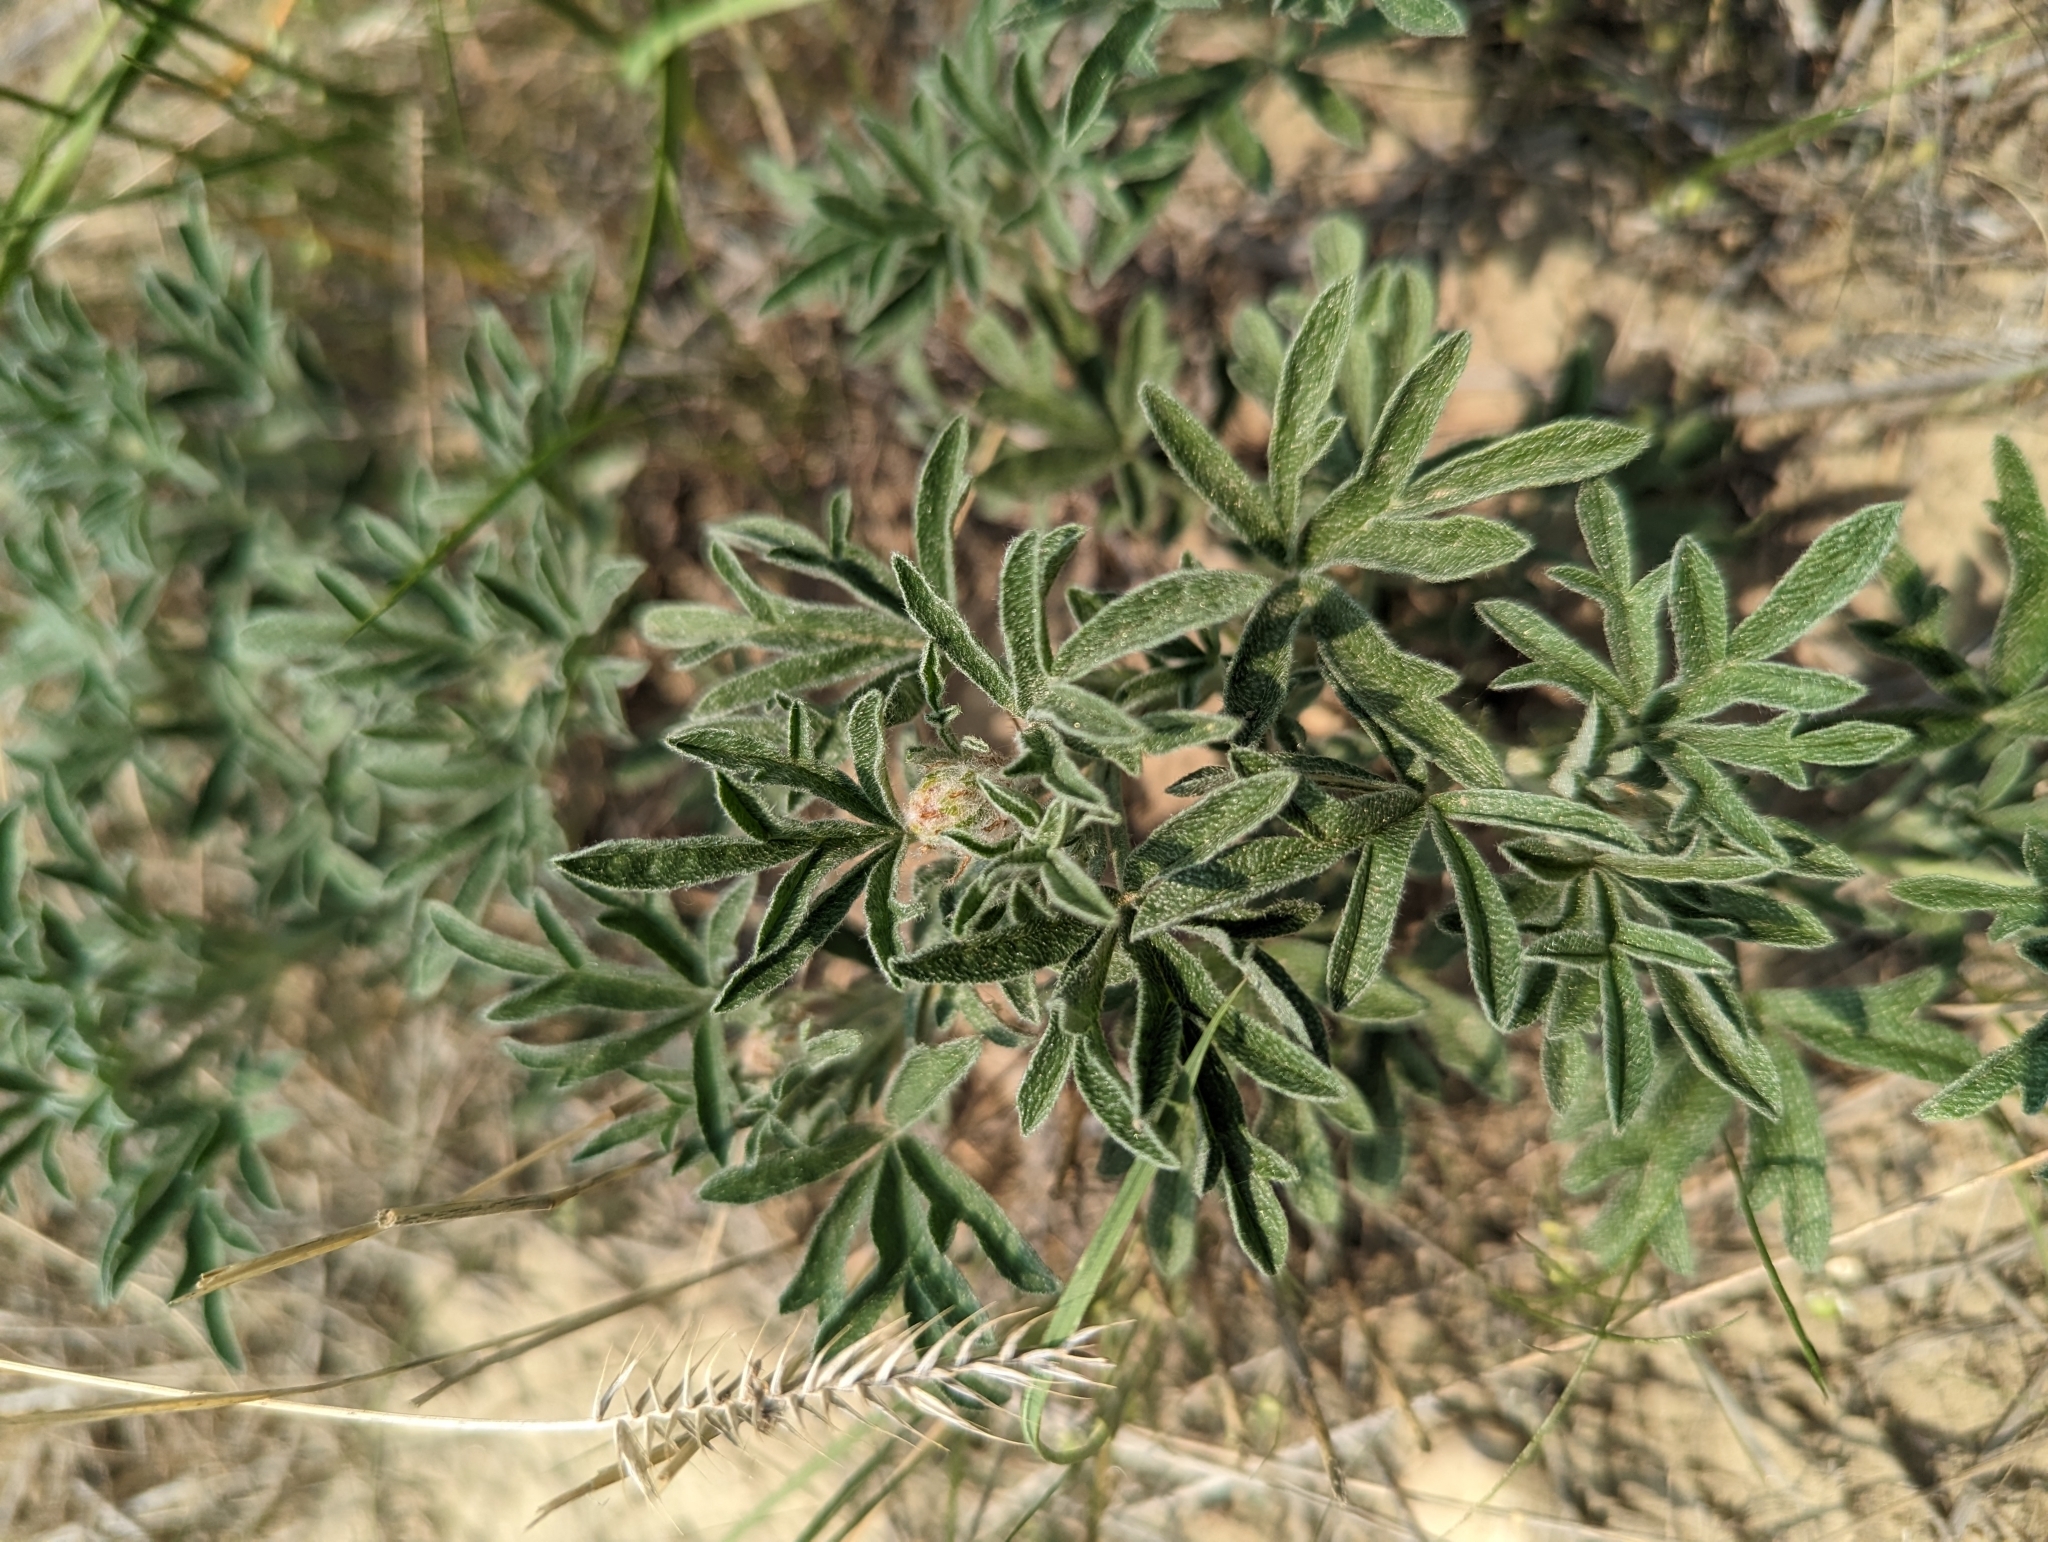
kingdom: Plantae
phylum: Tracheophyta
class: Magnoliopsida
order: Malvales
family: Malvaceae
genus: Sphaeralcea
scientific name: Sphaeralcea coccinea
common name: Moss-rose
